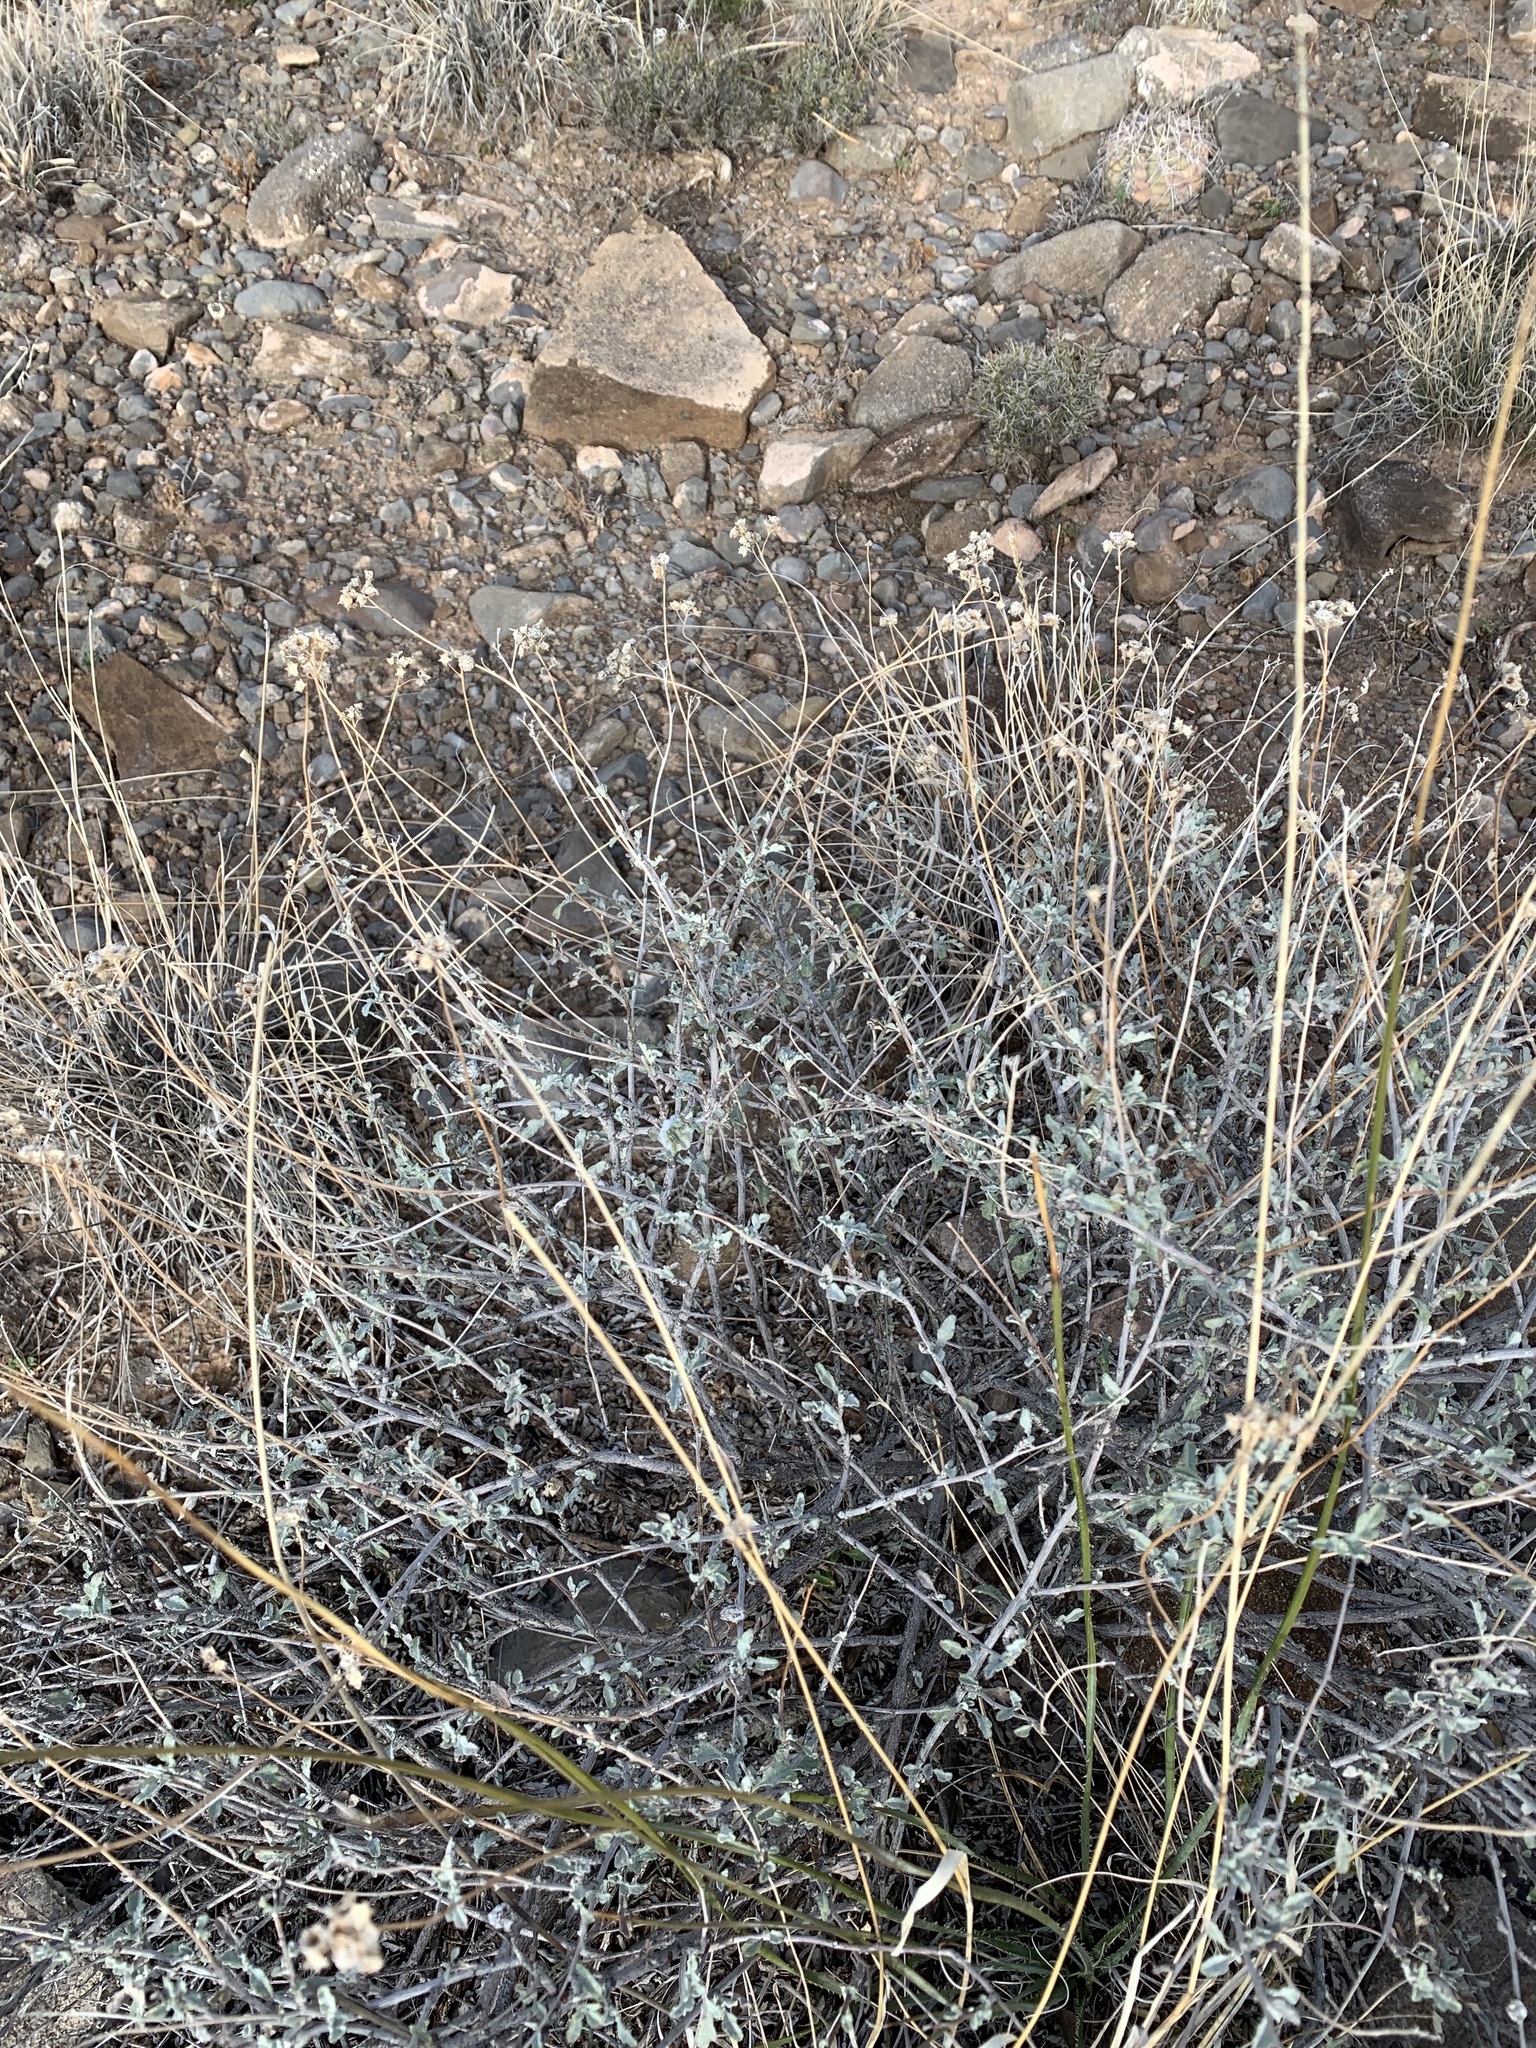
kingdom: Plantae
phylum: Tracheophyta
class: Magnoliopsida
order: Asterales
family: Asteraceae
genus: Parthenium
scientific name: Parthenium incanum
